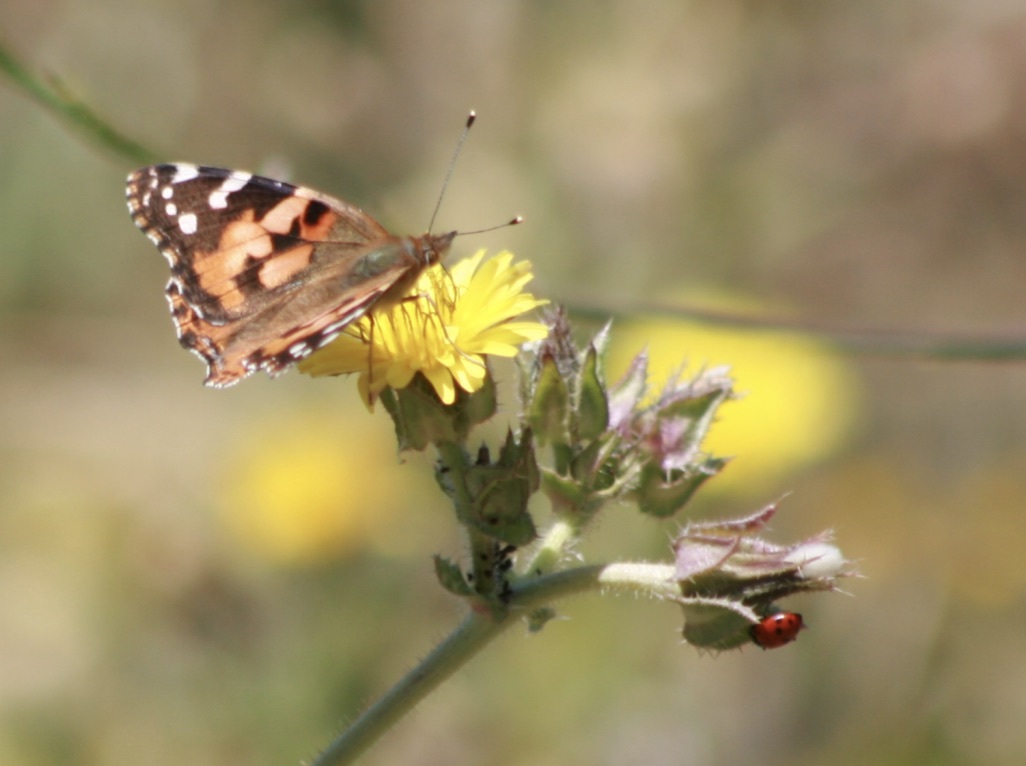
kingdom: Animalia
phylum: Arthropoda
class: Insecta
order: Coleoptera
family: Coccinellidae
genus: Hippodamia
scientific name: Hippodamia
